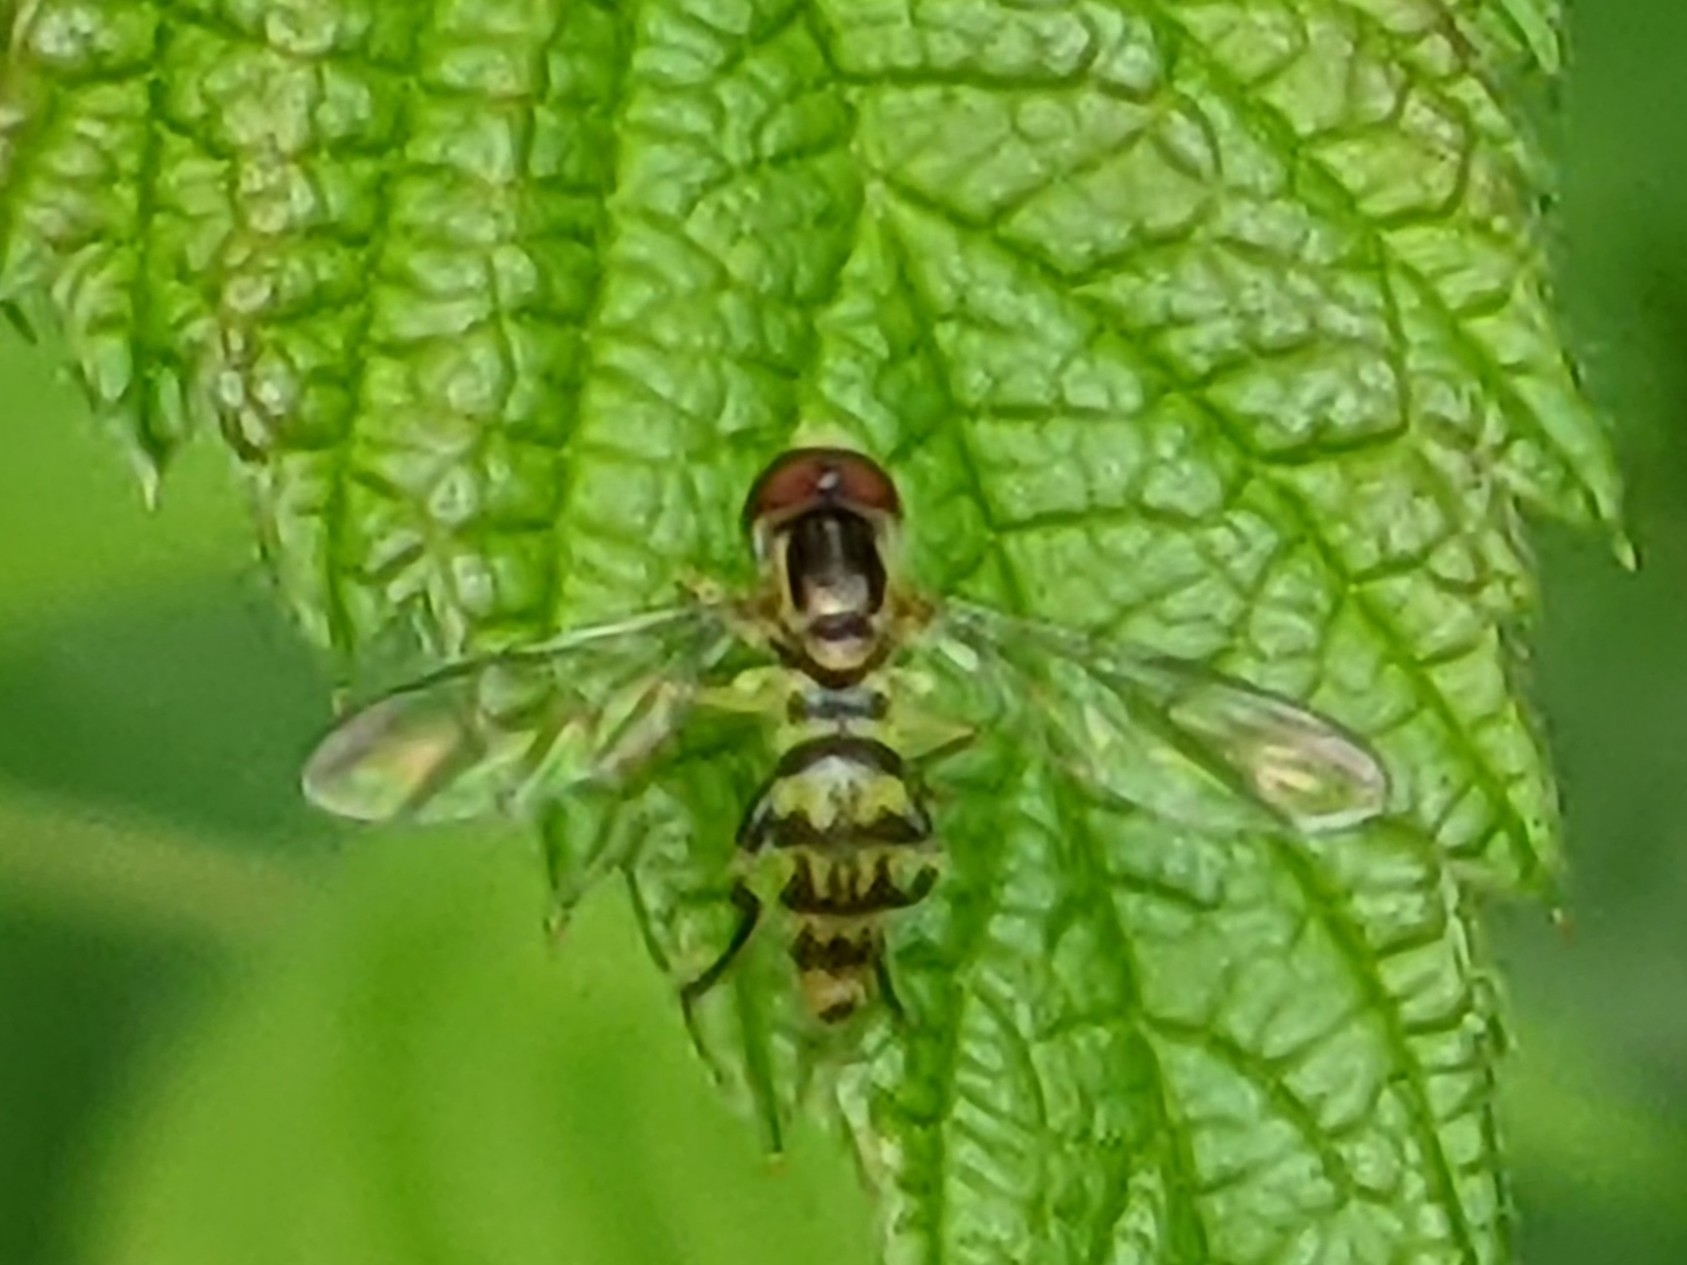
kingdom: Animalia
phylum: Arthropoda
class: Insecta
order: Diptera
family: Syrphidae
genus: Toxomerus
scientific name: Toxomerus geminatus
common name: Eastern calligrapher
